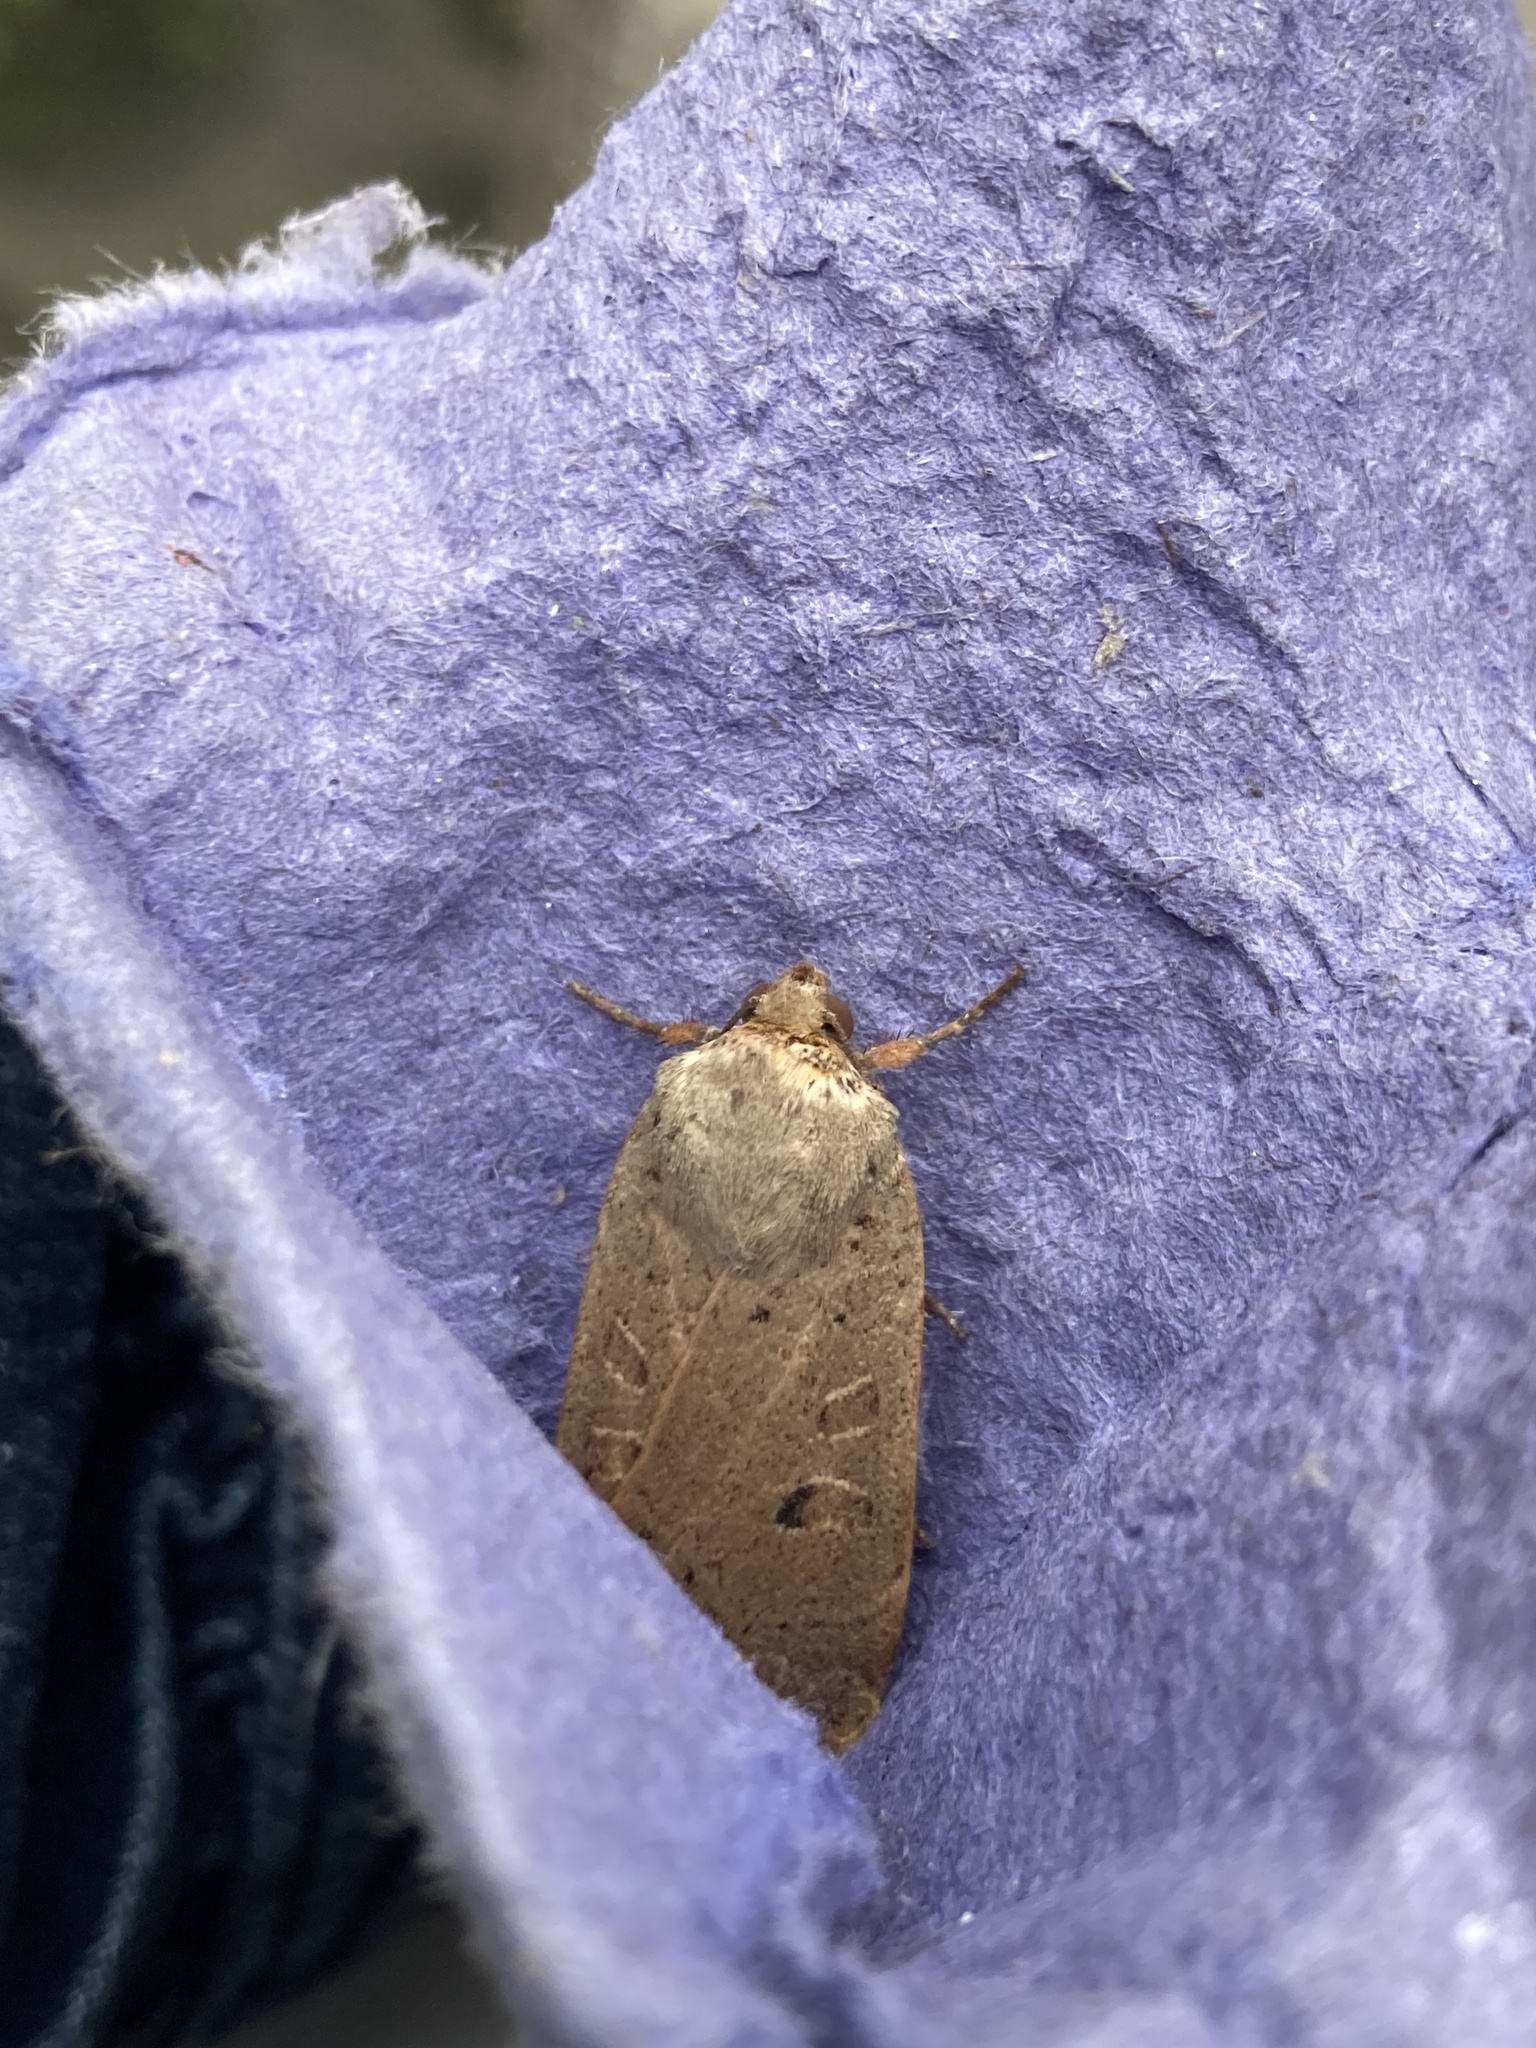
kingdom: Animalia
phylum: Arthropoda
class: Insecta
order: Lepidoptera
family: Noctuidae
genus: Noctua
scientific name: Noctua comes
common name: Lesser yellow underwing
